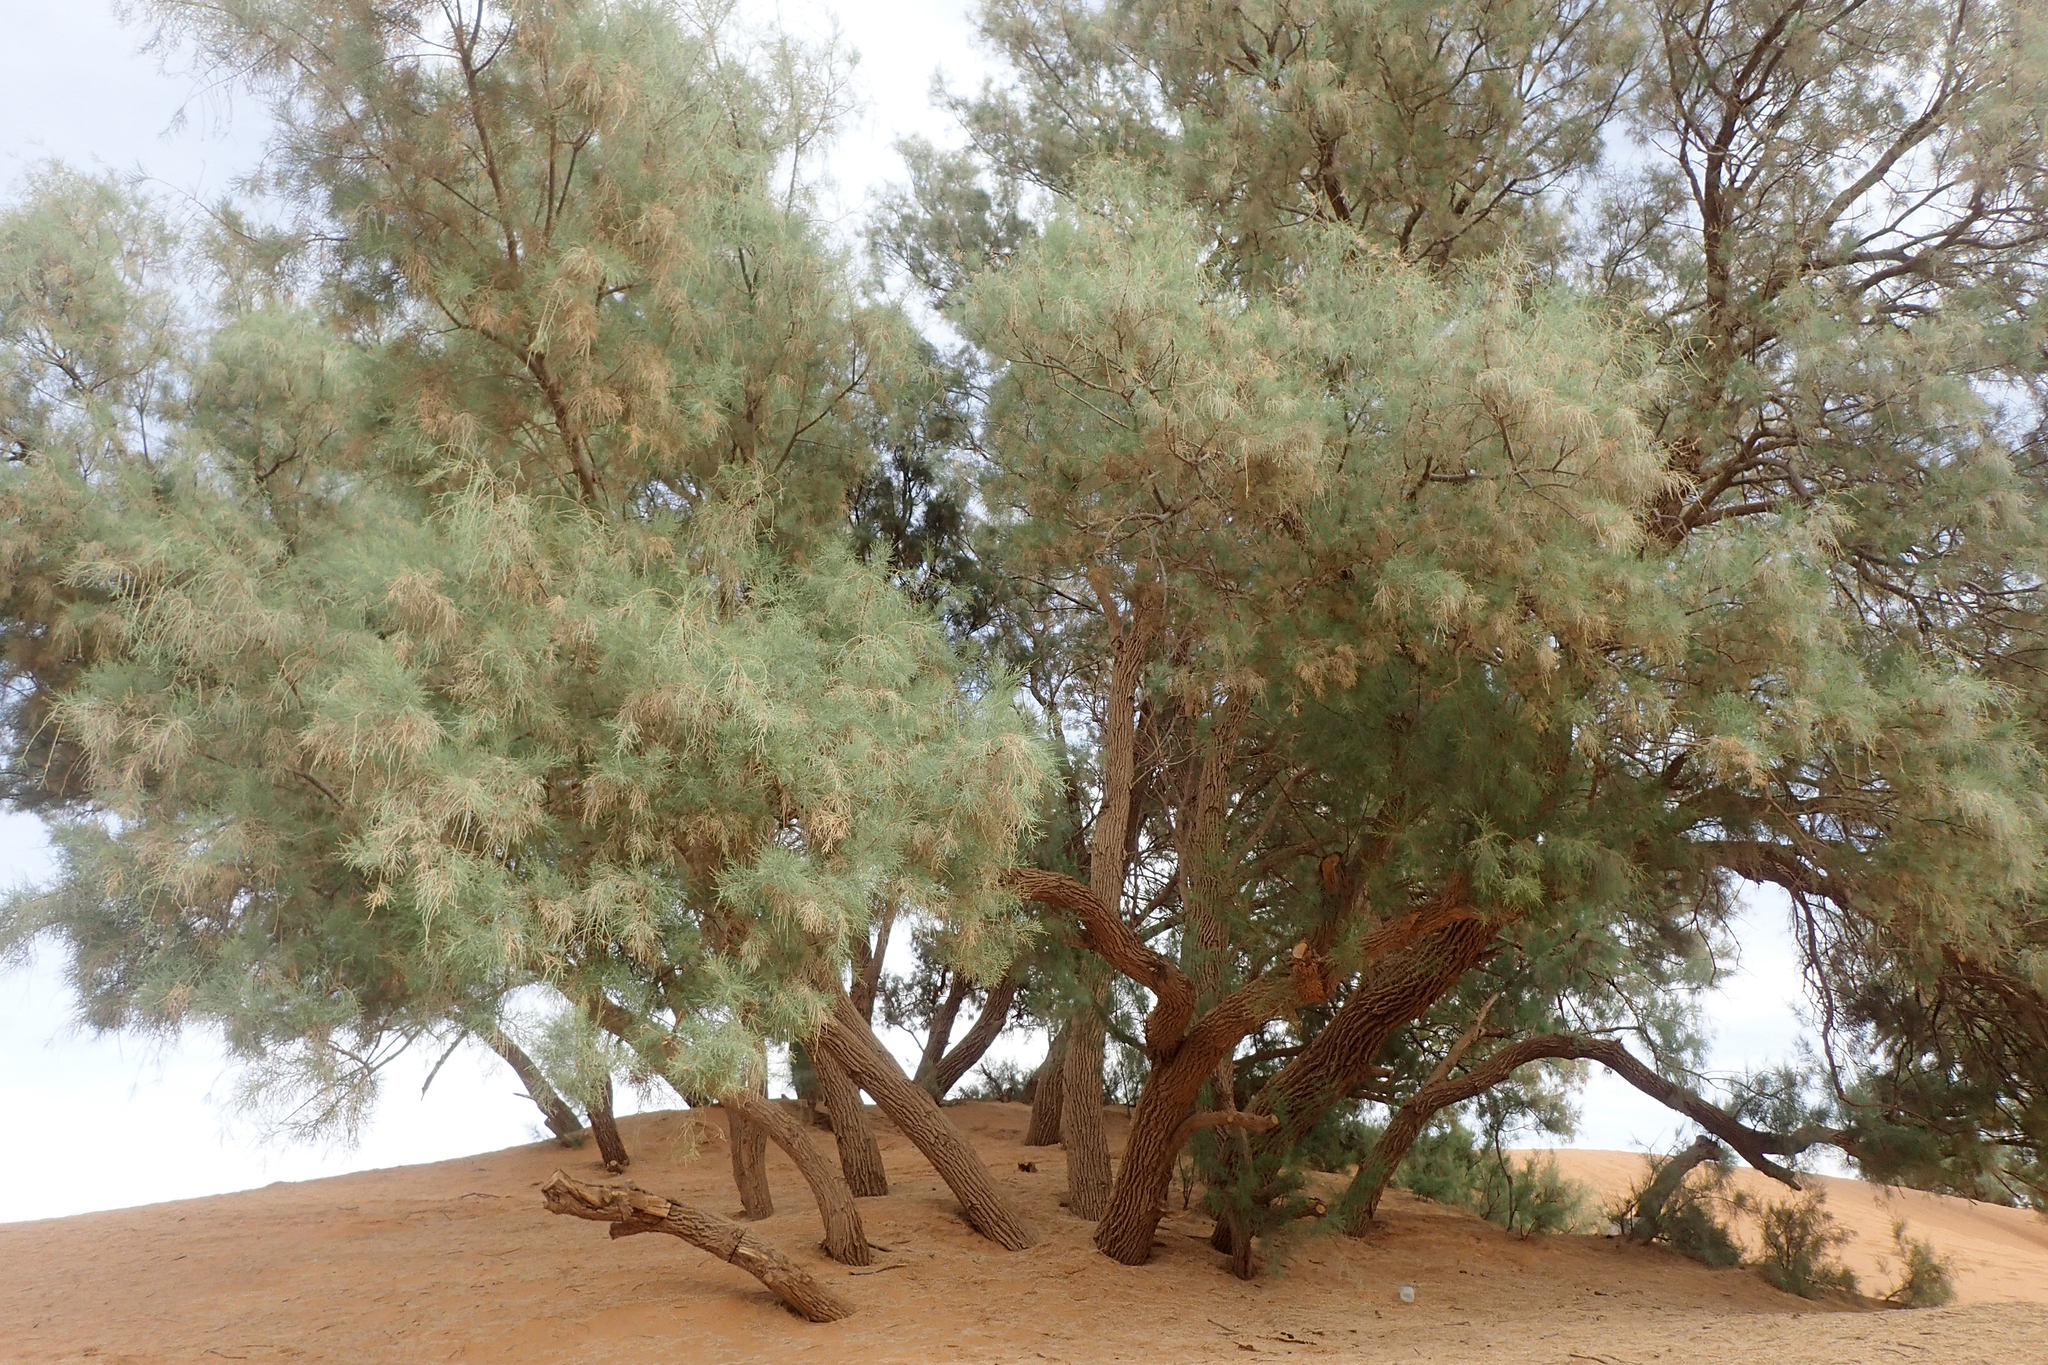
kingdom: Plantae
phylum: Tracheophyta
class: Magnoliopsida
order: Caryophyllales
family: Tamaricaceae
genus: Tamarix
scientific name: Tamarix aphylla
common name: Athel tamarisk
